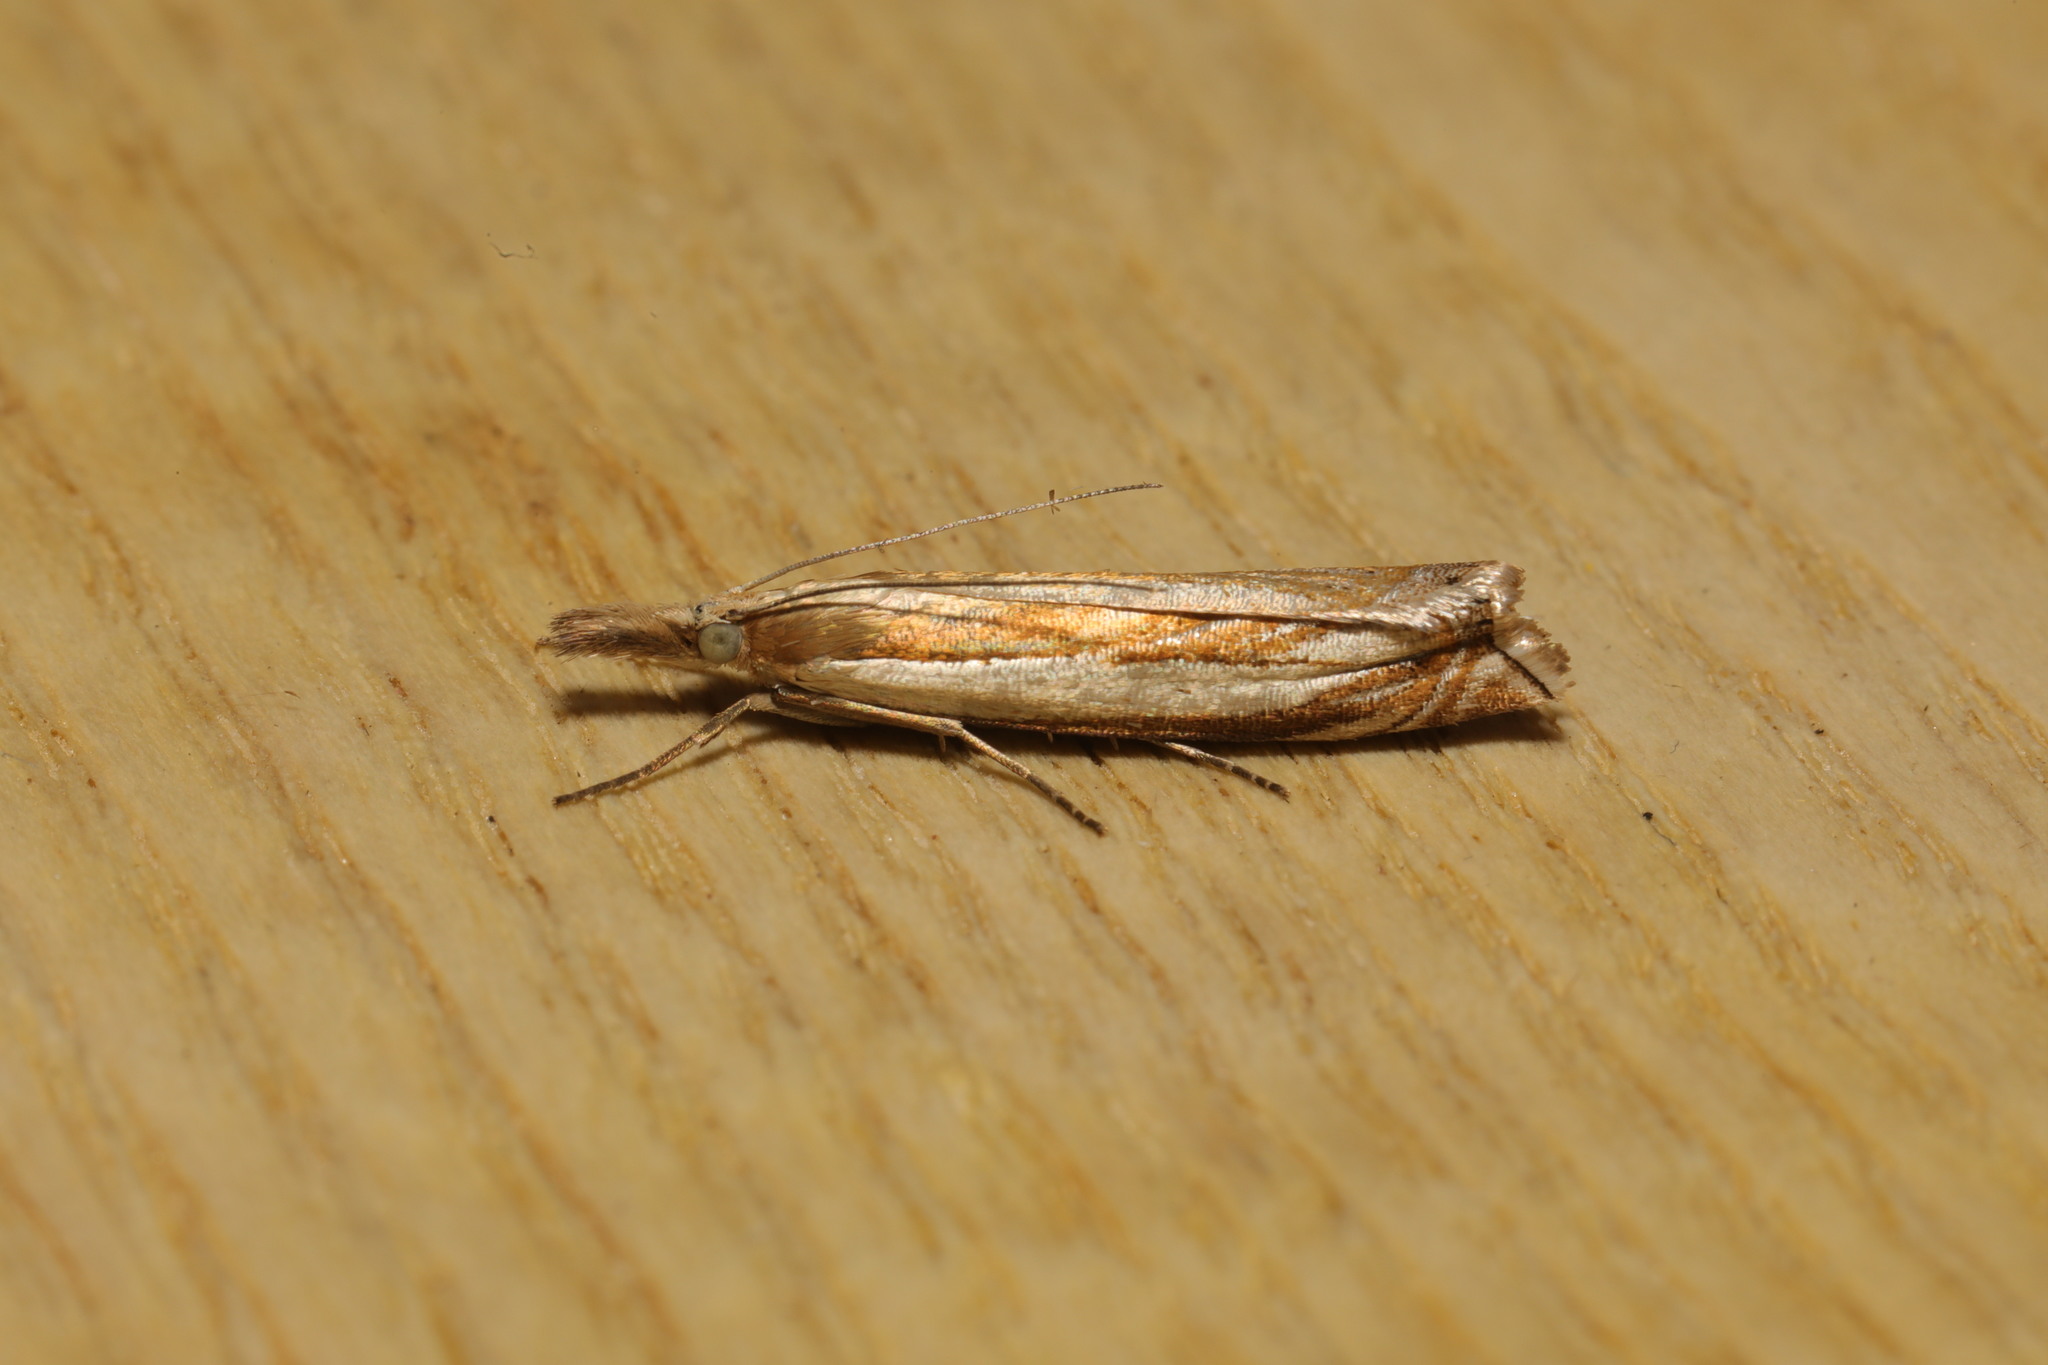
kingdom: Animalia
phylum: Arthropoda
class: Insecta
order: Lepidoptera
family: Crambidae
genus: Crambus
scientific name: Crambus pascuella
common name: Inlaid grass-veneer
